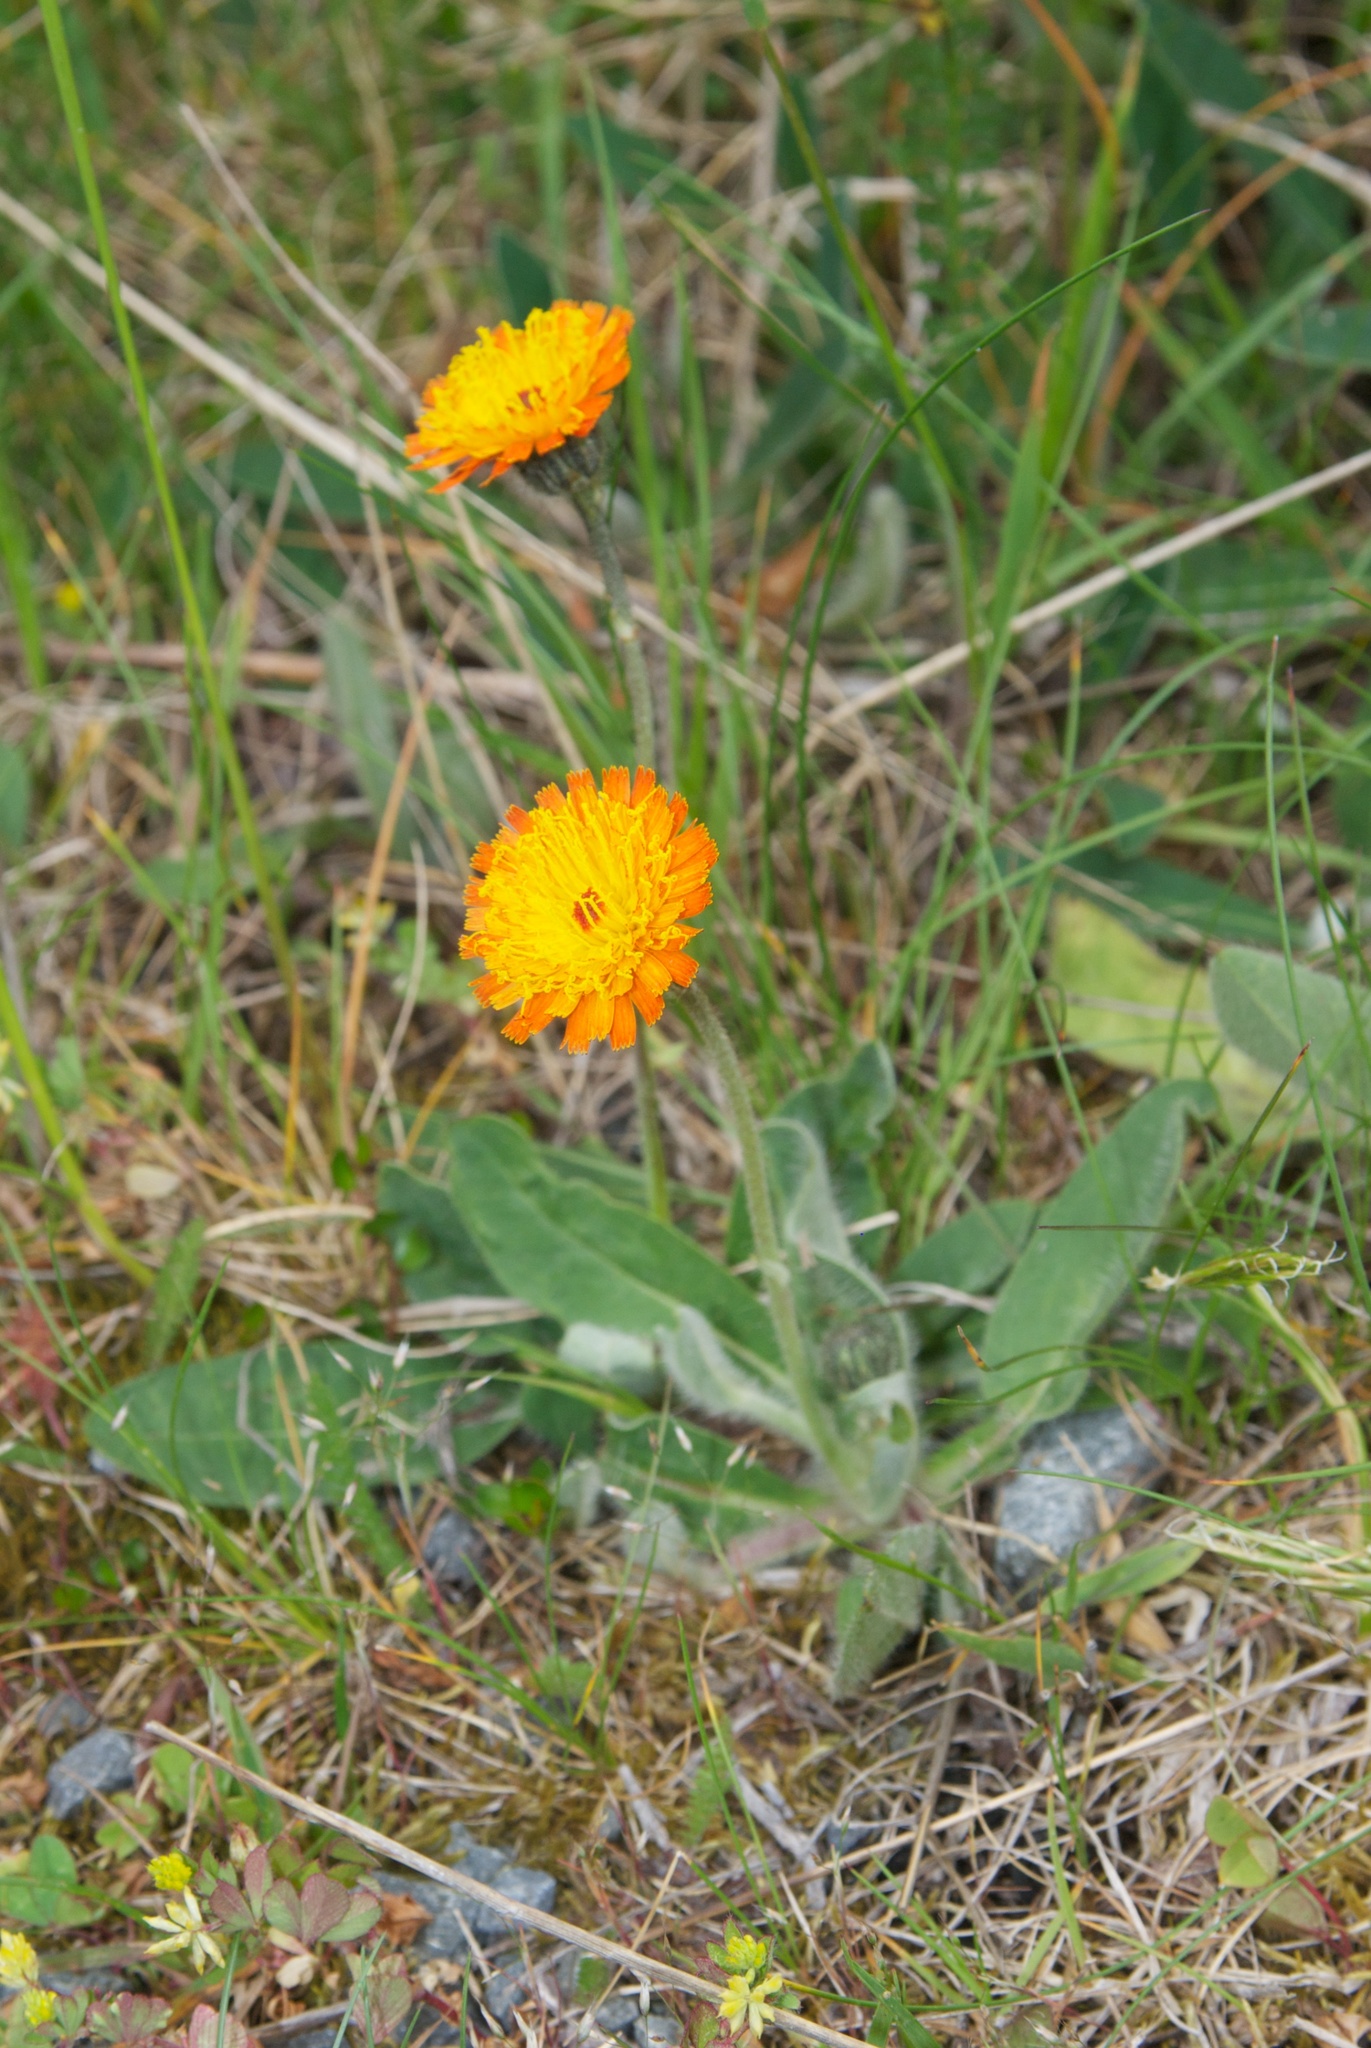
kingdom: Plantae
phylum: Tracheophyta
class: Magnoliopsida
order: Asterales
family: Asteraceae
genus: Pilosella
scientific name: Pilosella aurantiaca
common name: Fox-and-cubs
